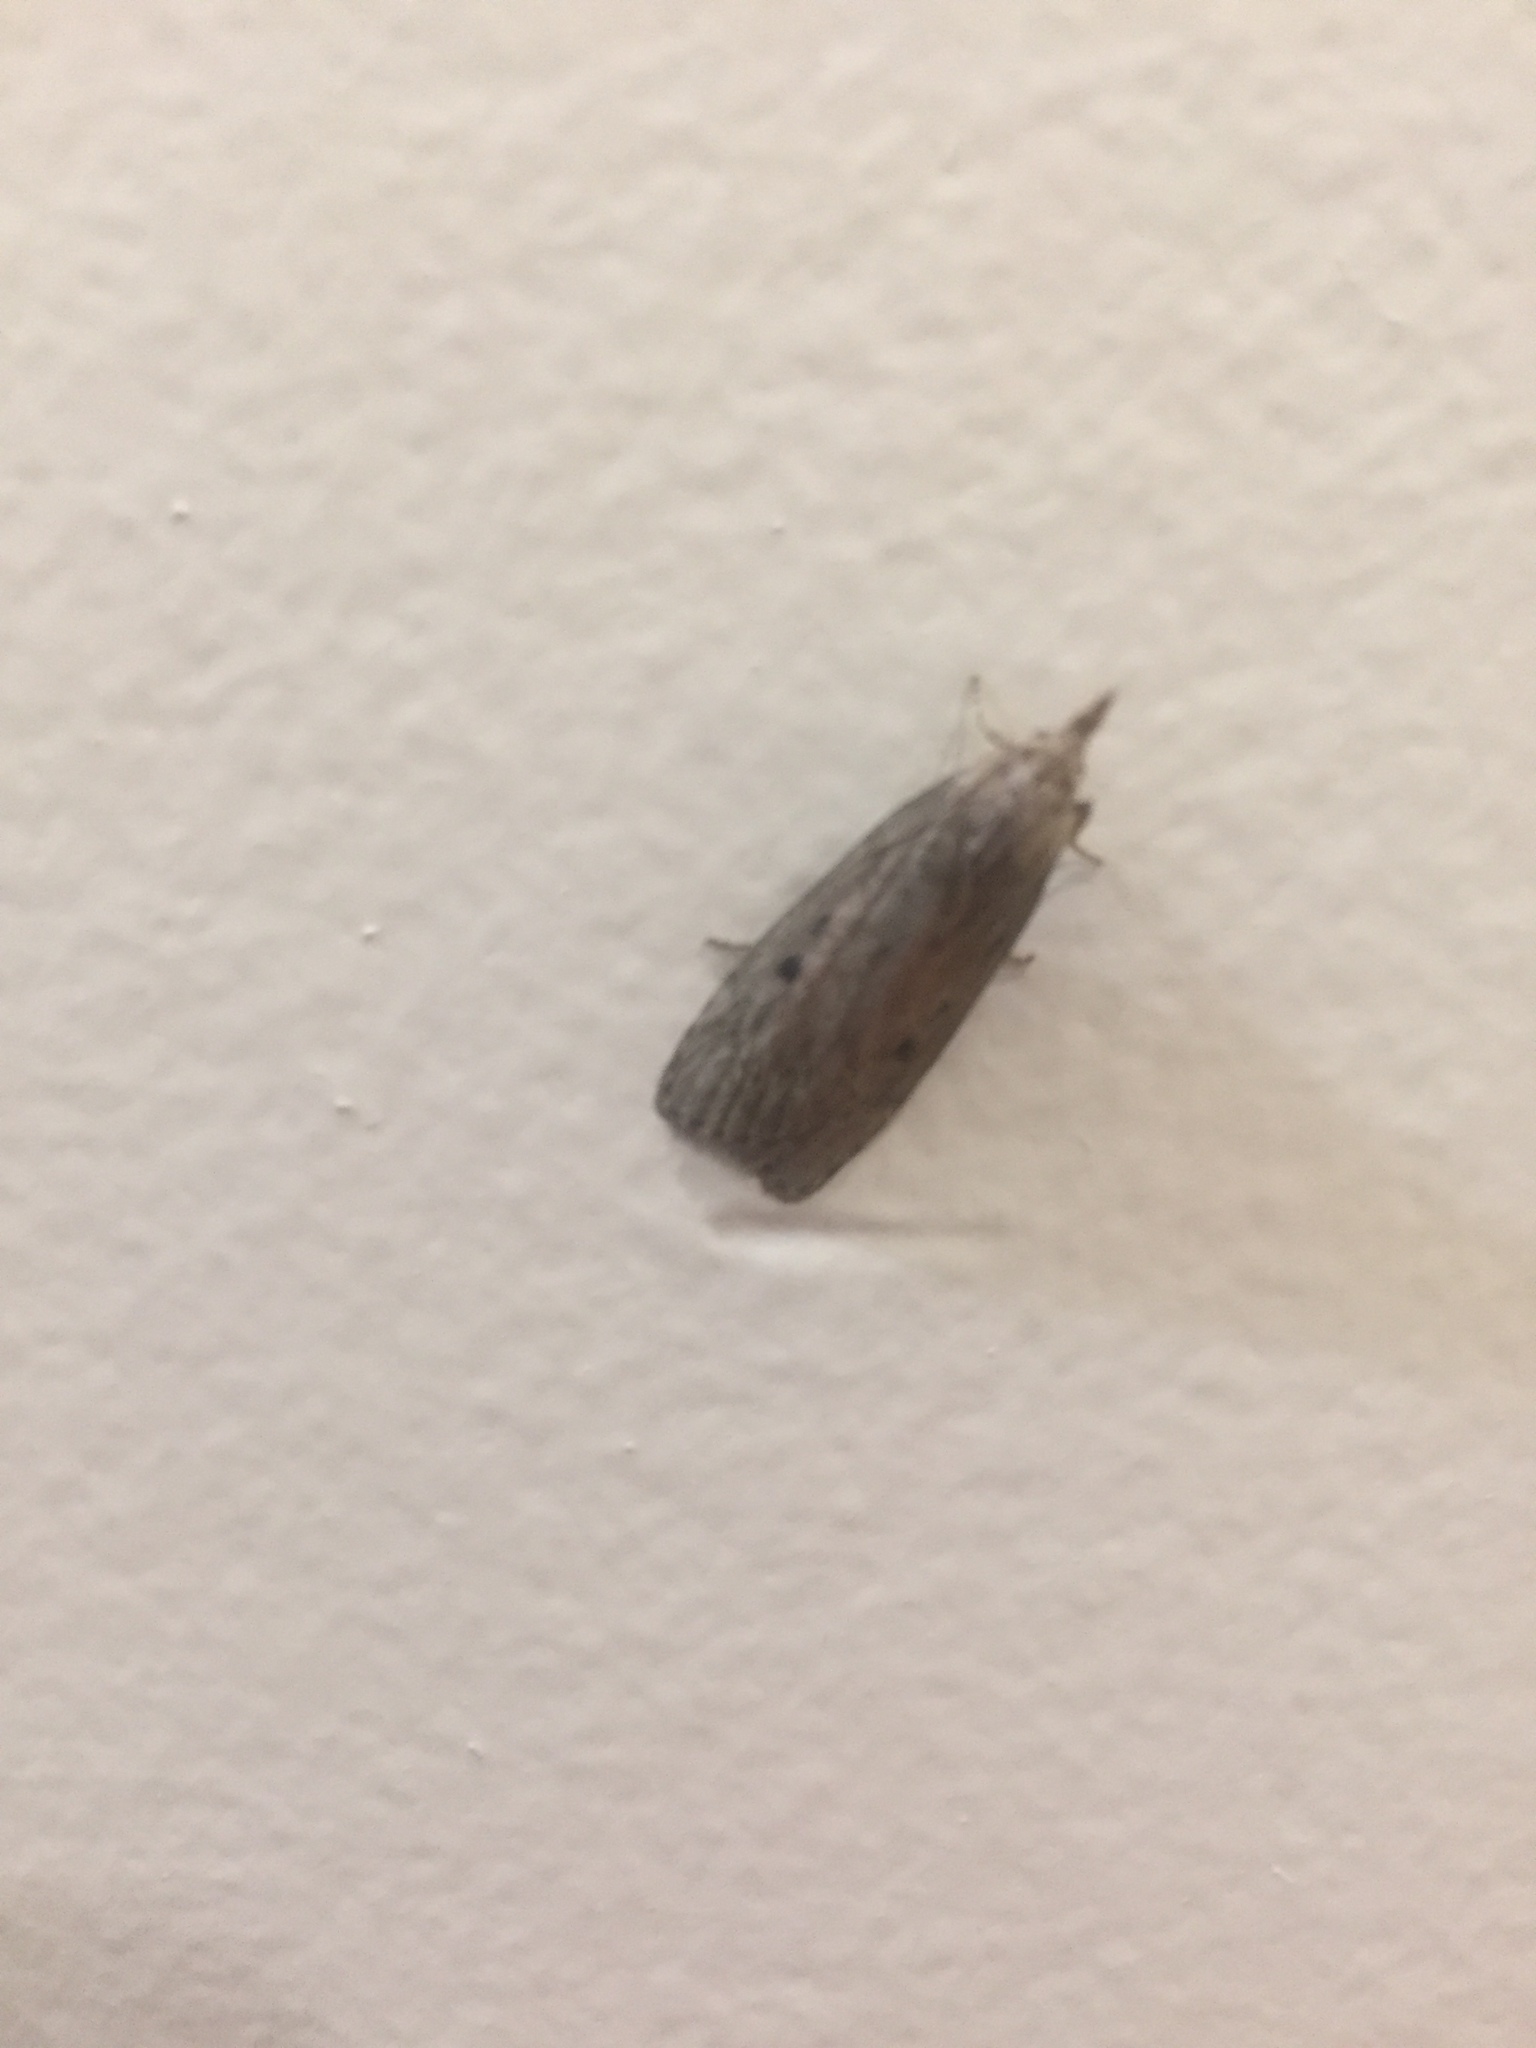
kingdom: Animalia
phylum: Arthropoda
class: Insecta
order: Lepidoptera
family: Pyralidae
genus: Aphomia
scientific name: Aphomia sociella
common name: Bee moth
